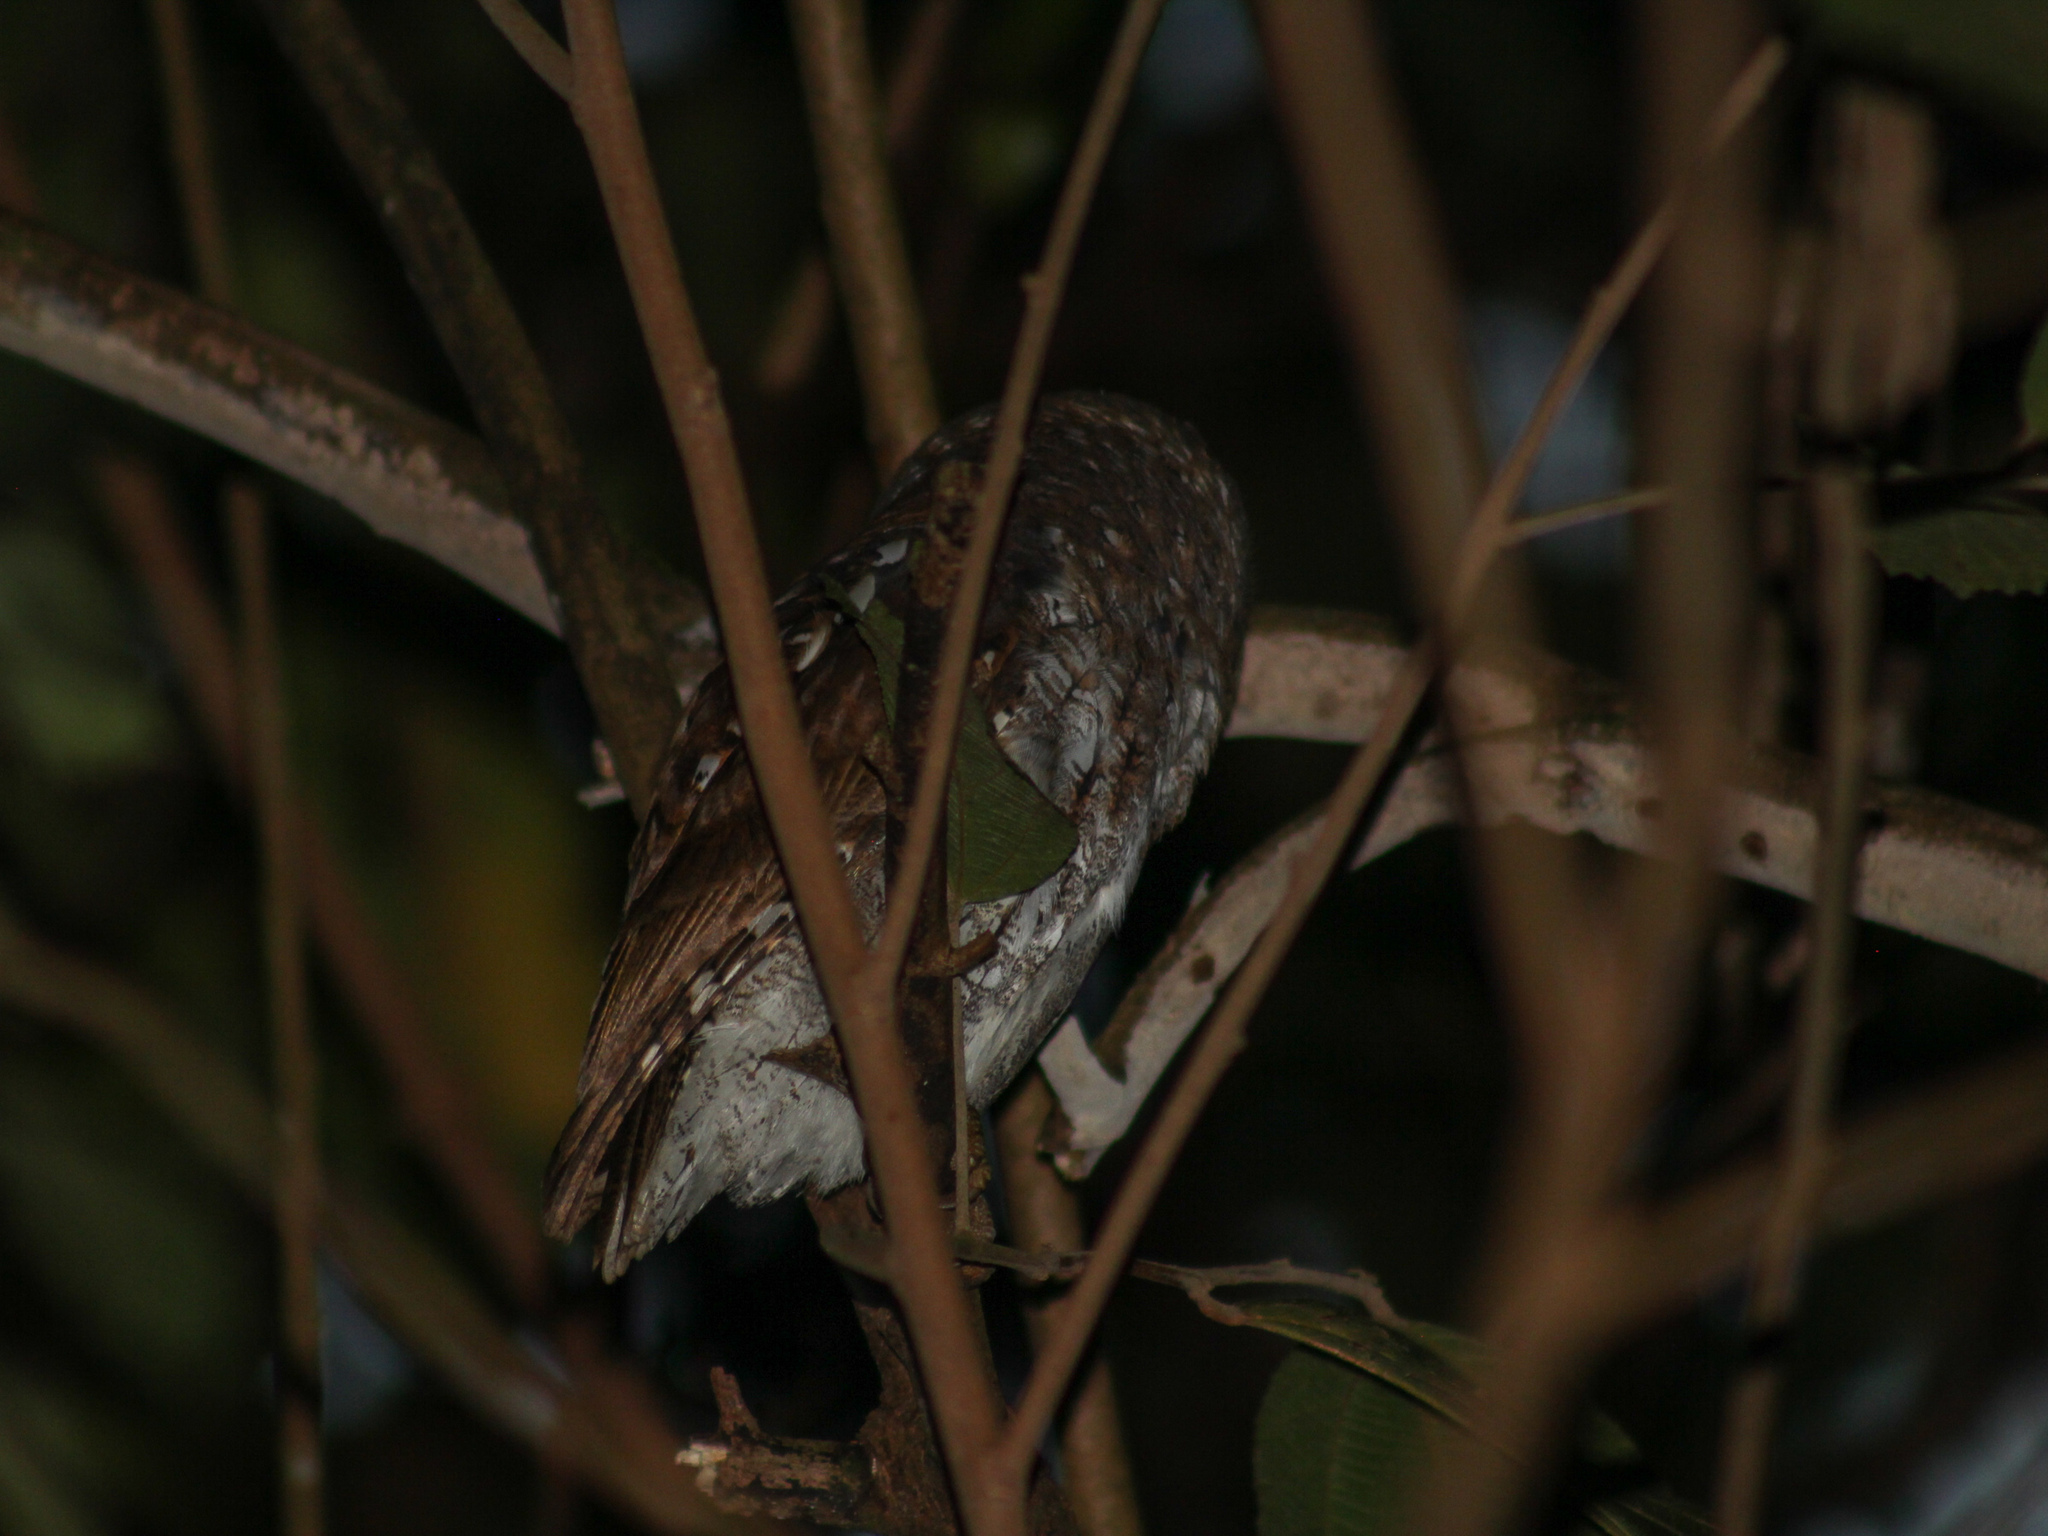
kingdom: Animalia
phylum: Chordata
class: Aves
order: Strigiformes
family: Strigidae
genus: Otus
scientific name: Otus sunia
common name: Oriental scops-owl
